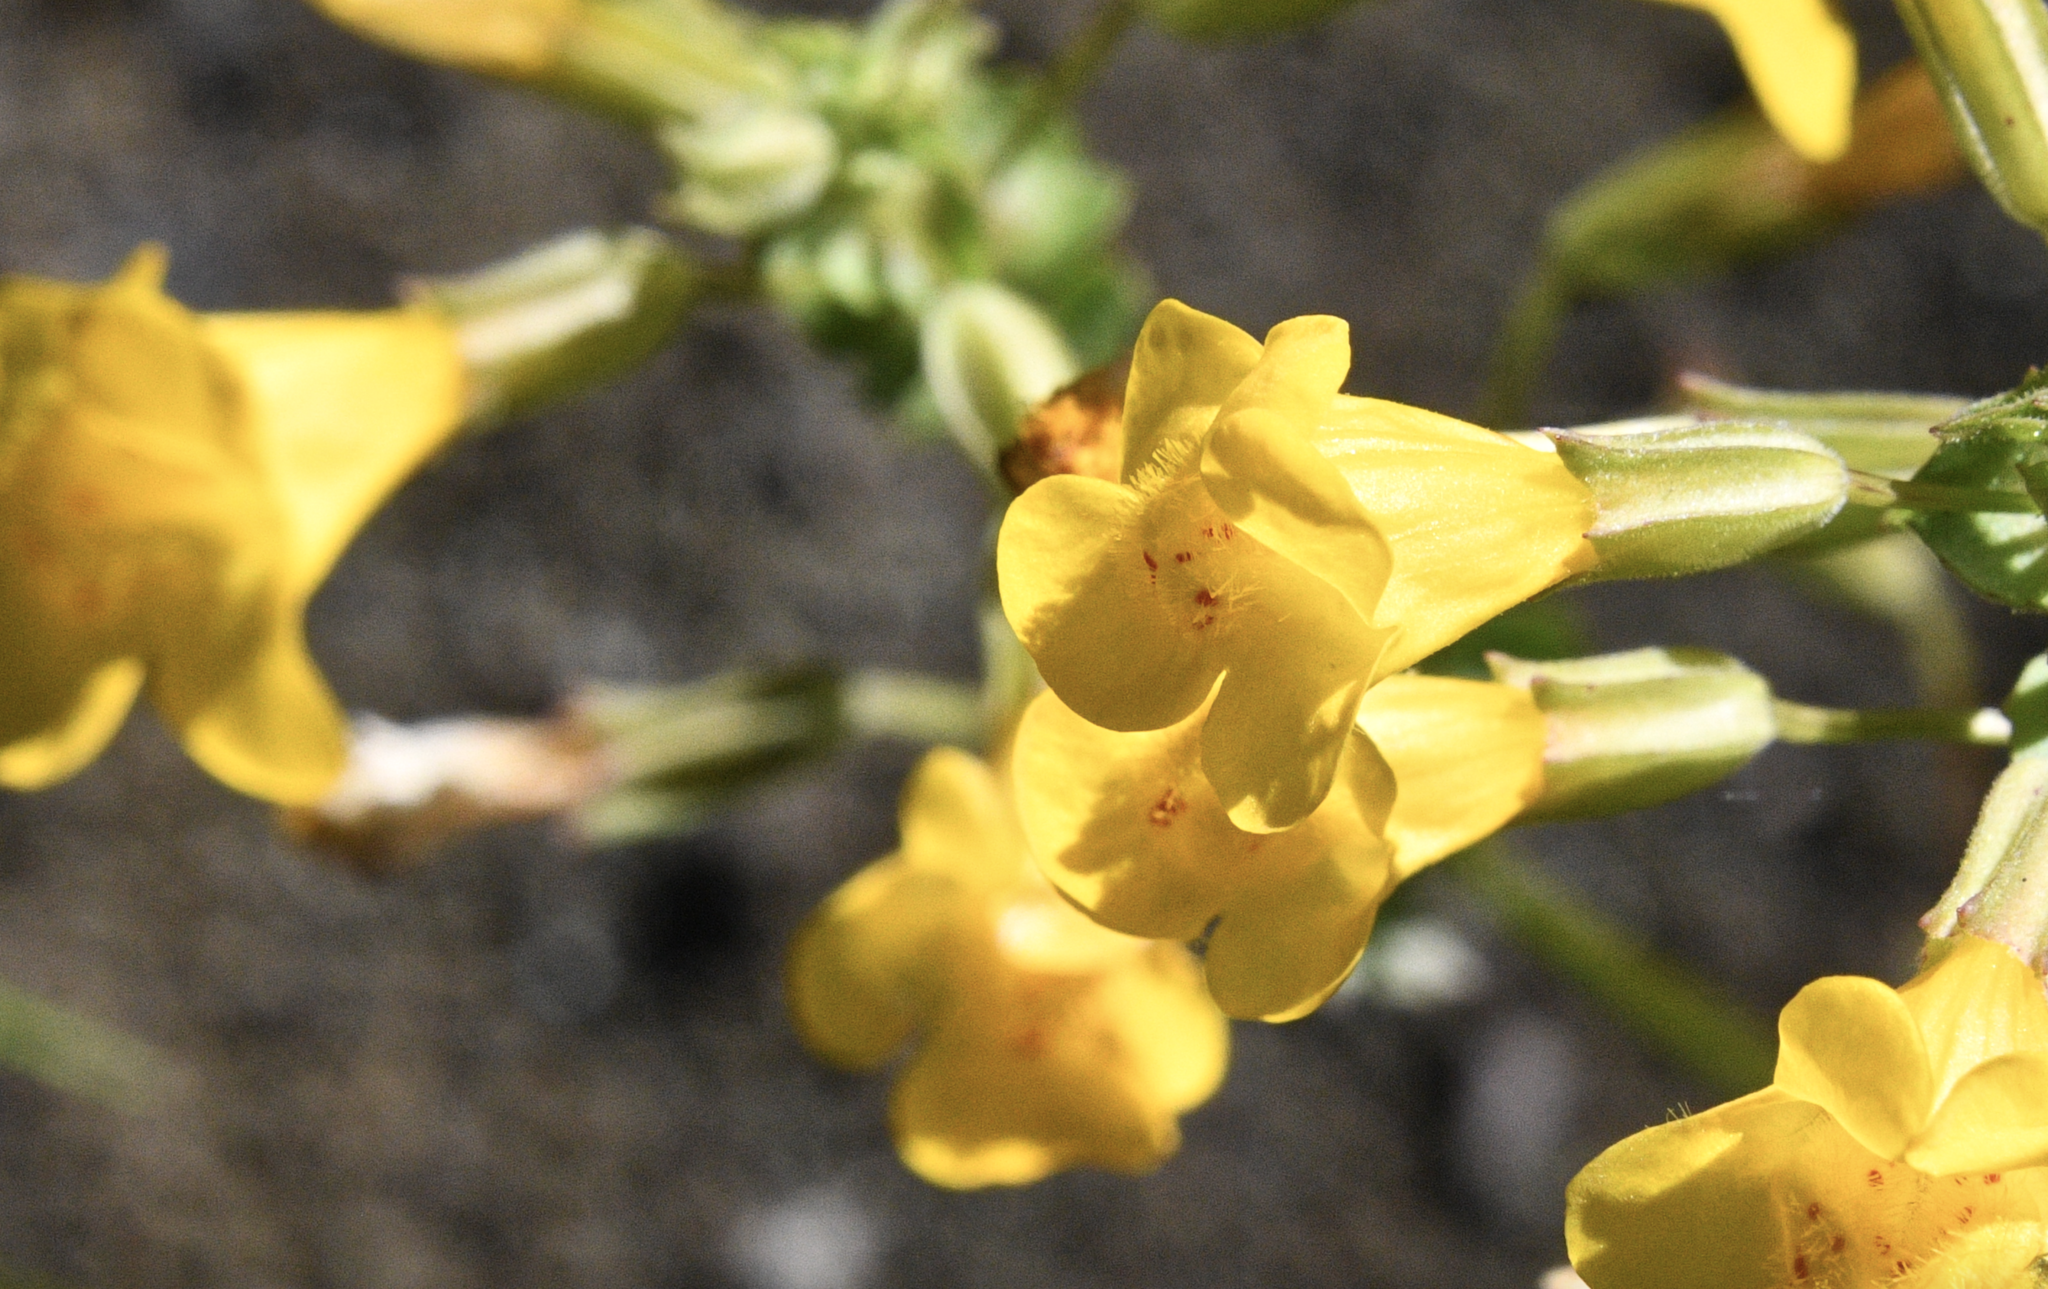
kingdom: Plantae
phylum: Tracheophyta
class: Magnoliopsida
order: Lamiales
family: Phrymaceae
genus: Erythranthe
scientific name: Erythranthe guttata
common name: Monkeyflower
